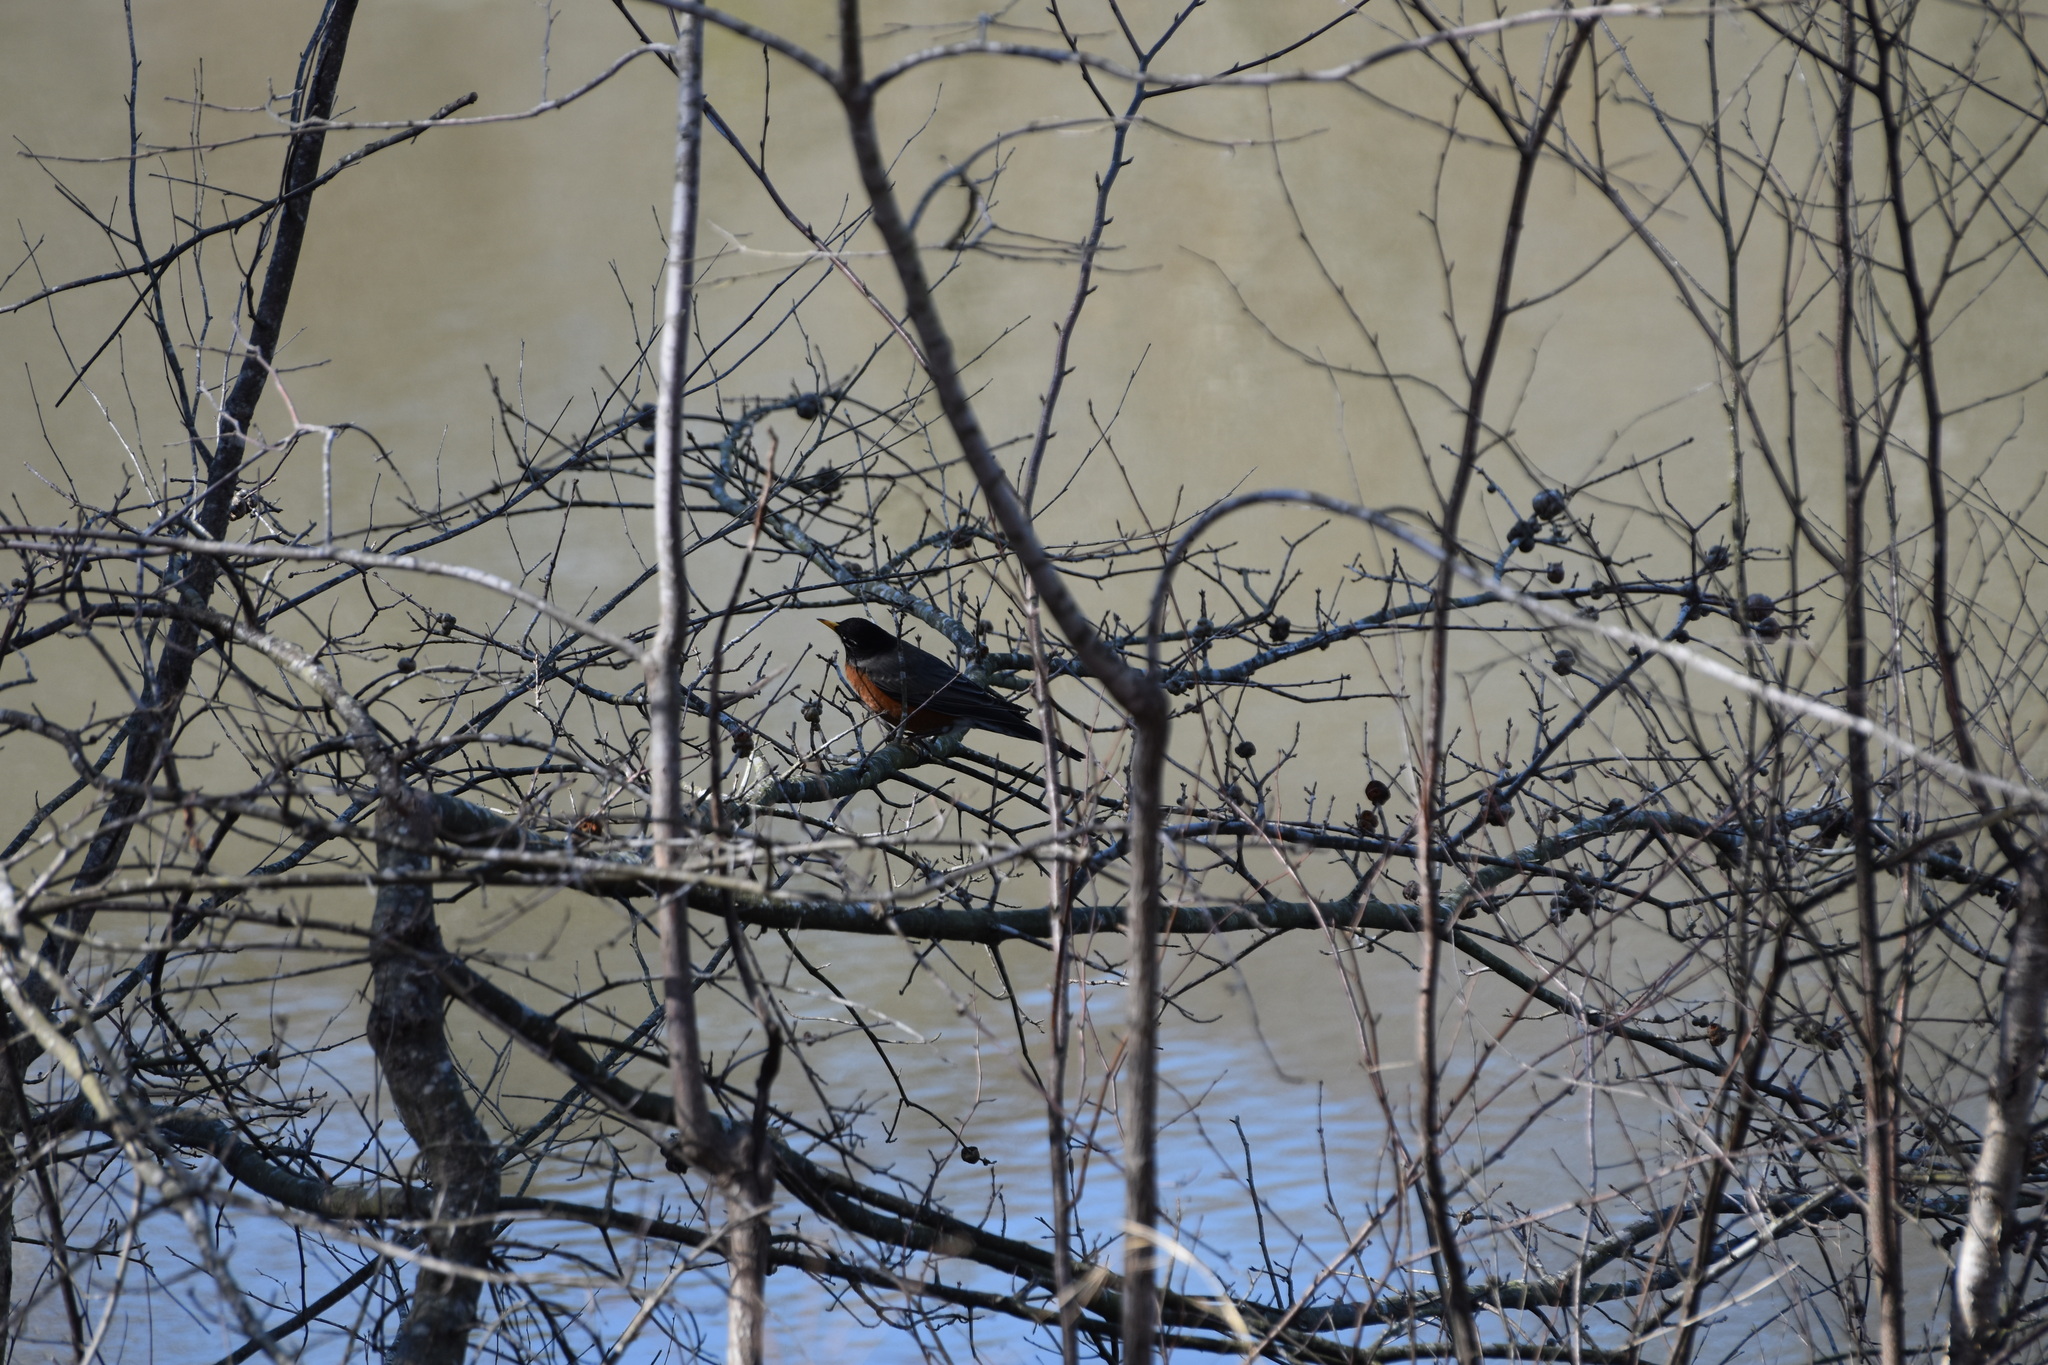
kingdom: Animalia
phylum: Chordata
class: Aves
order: Passeriformes
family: Turdidae
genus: Turdus
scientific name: Turdus migratorius
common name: American robin
